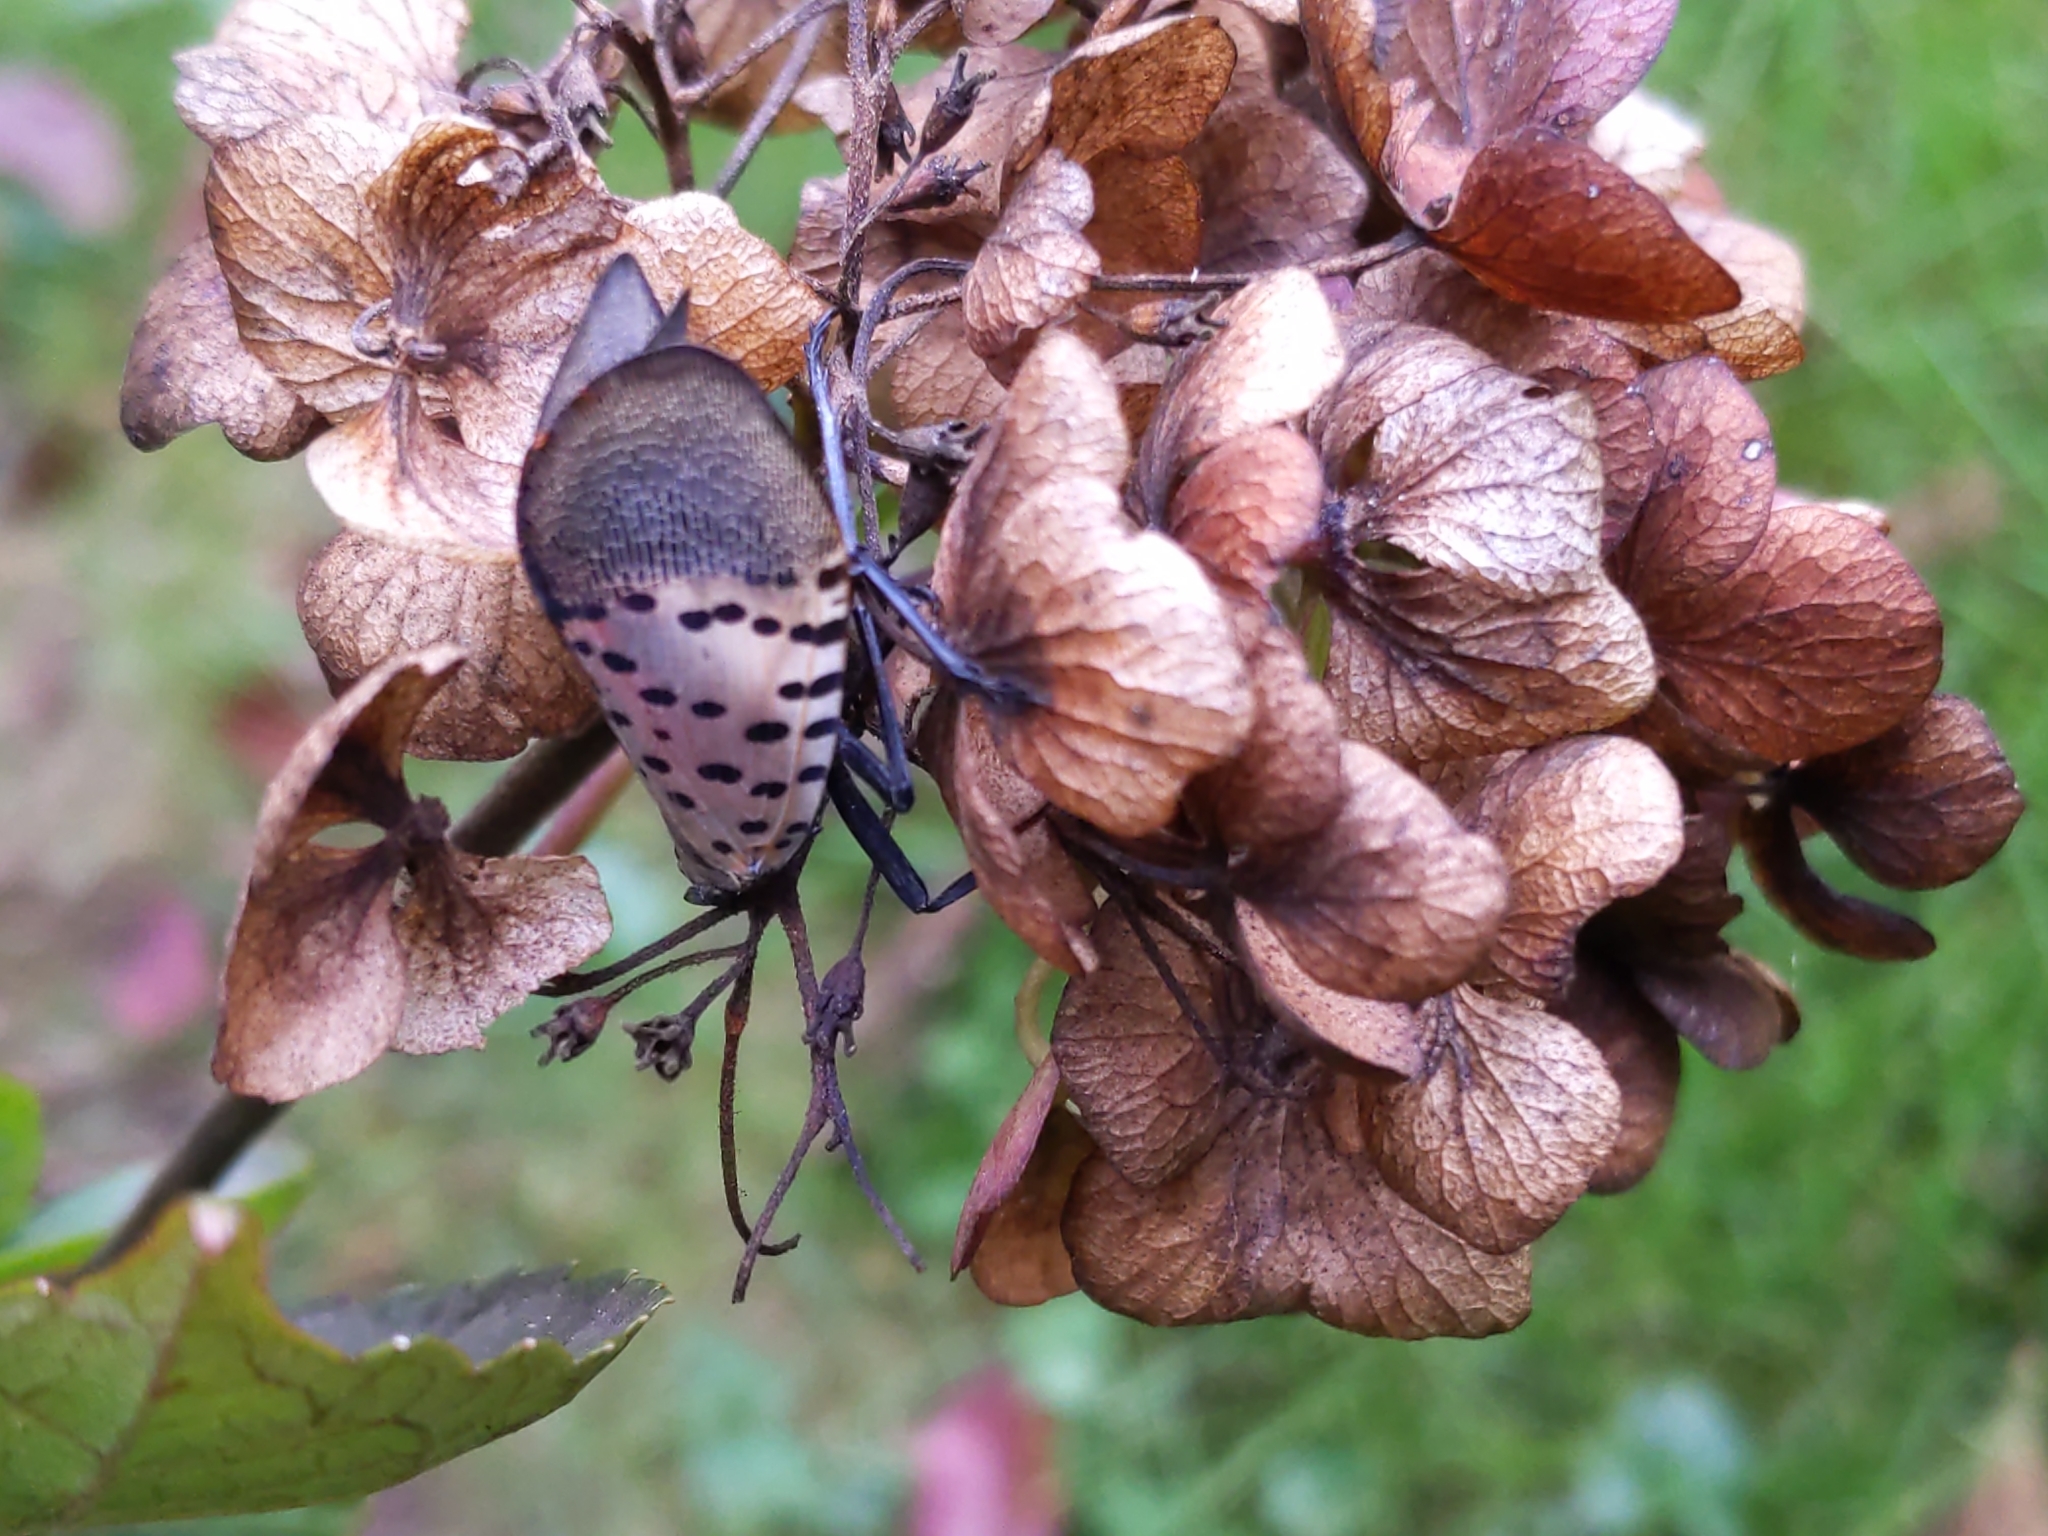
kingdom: Animalia
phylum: Arthropoda
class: Insecta
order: Hemiptera
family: Fulgoridae
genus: Lycorma
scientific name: Lycorma delicatula
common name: Spotted lanternfly
